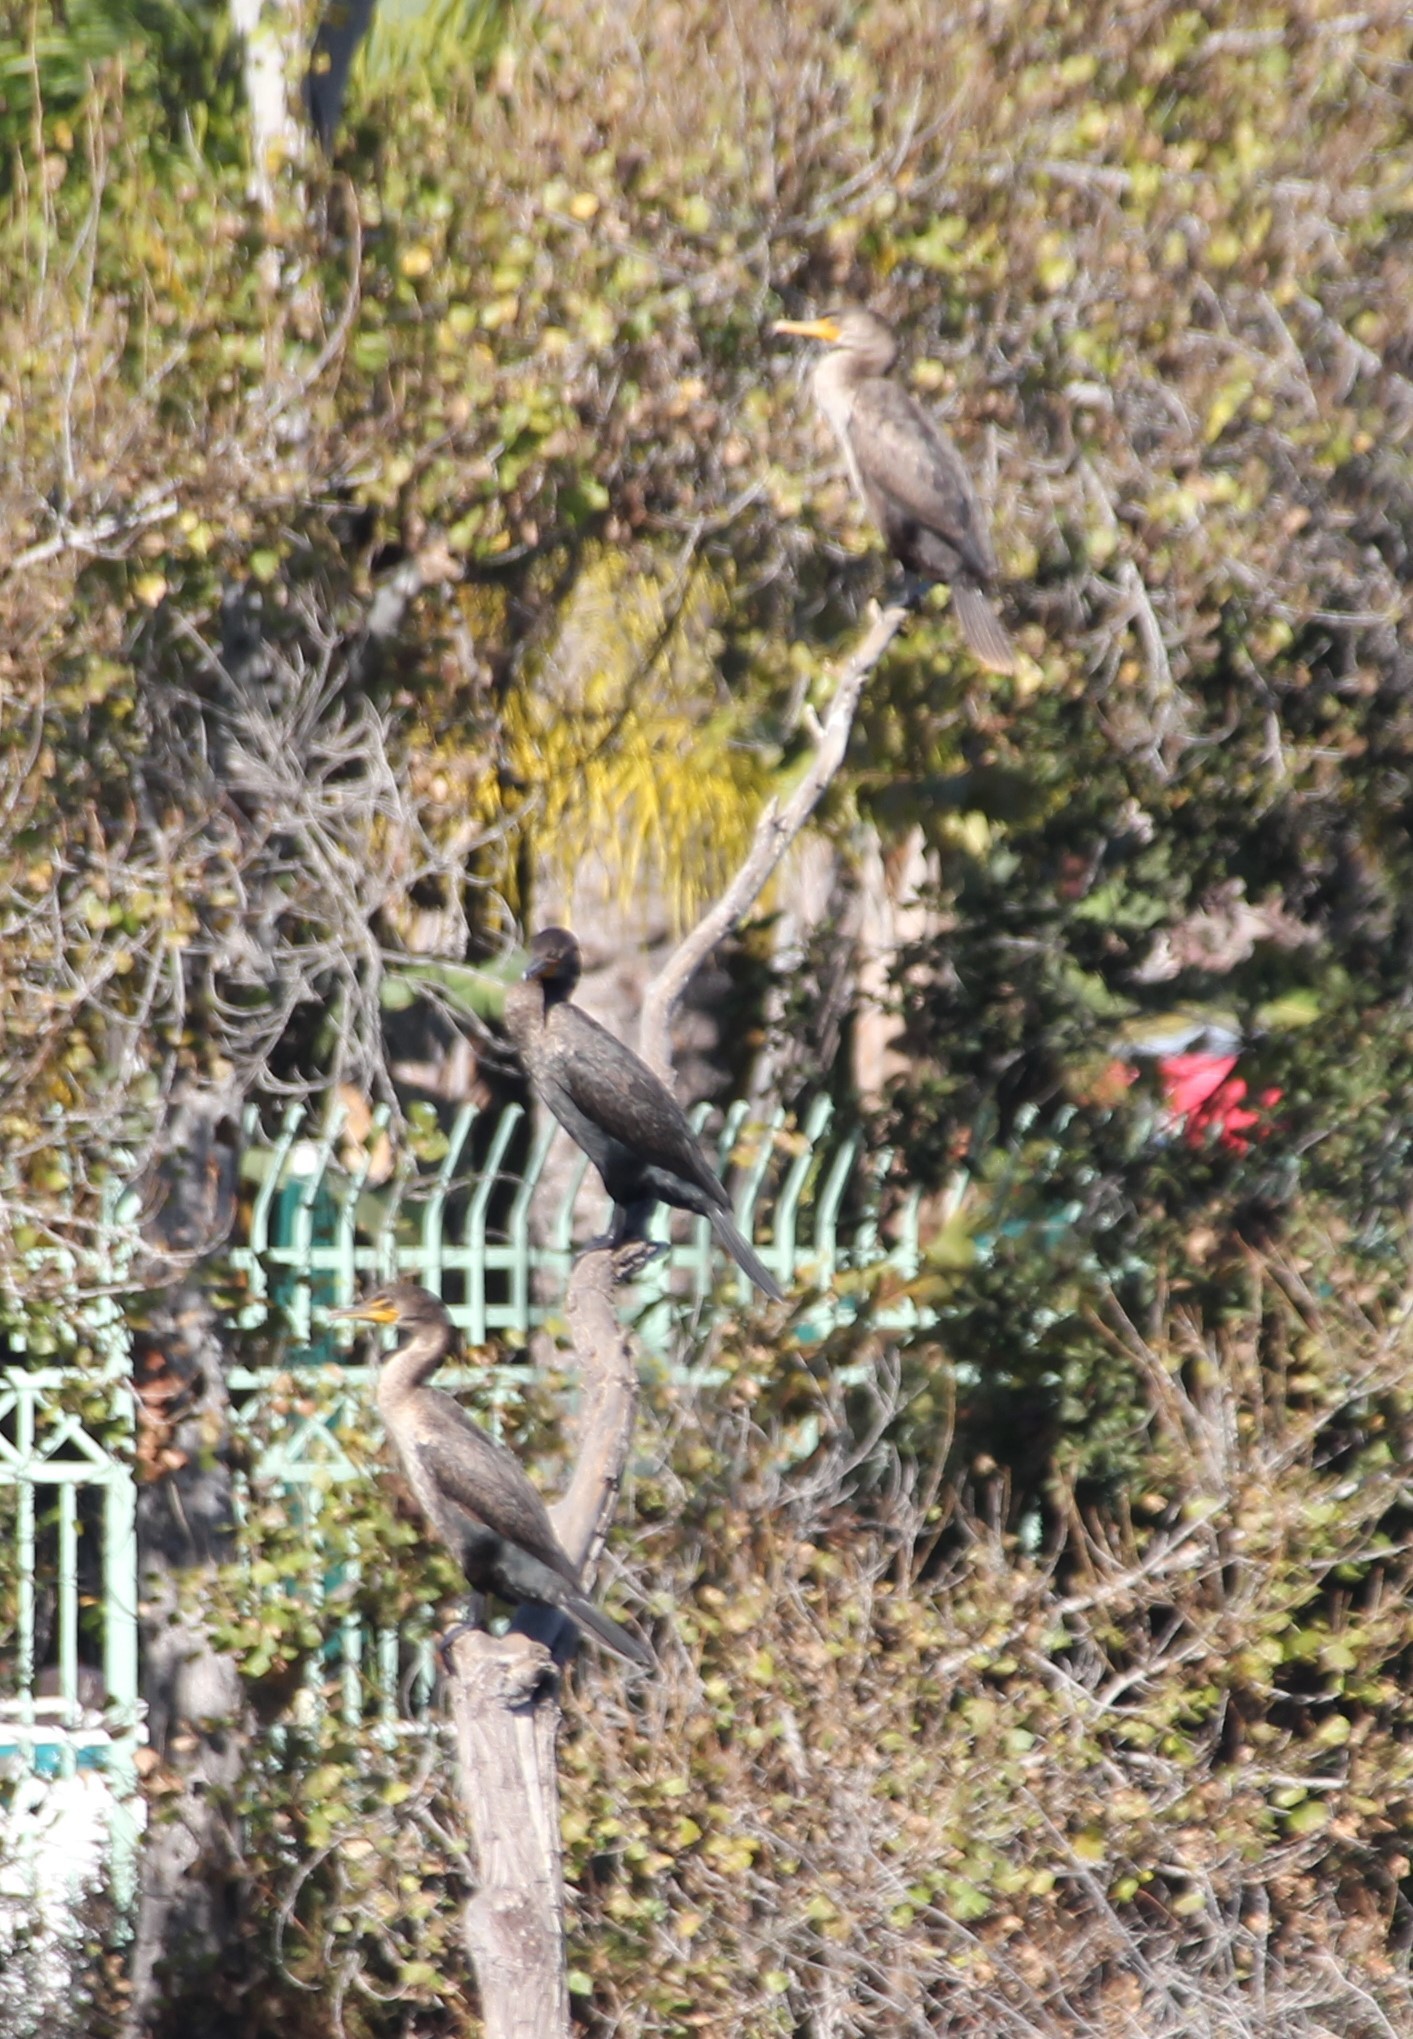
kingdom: Animalia
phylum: Chordata
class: Aves
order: Suliformes
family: Phalacrocoracidae
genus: Phalacrocorax
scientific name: Phalacrocorax auritus
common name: Double-crested cormorant
